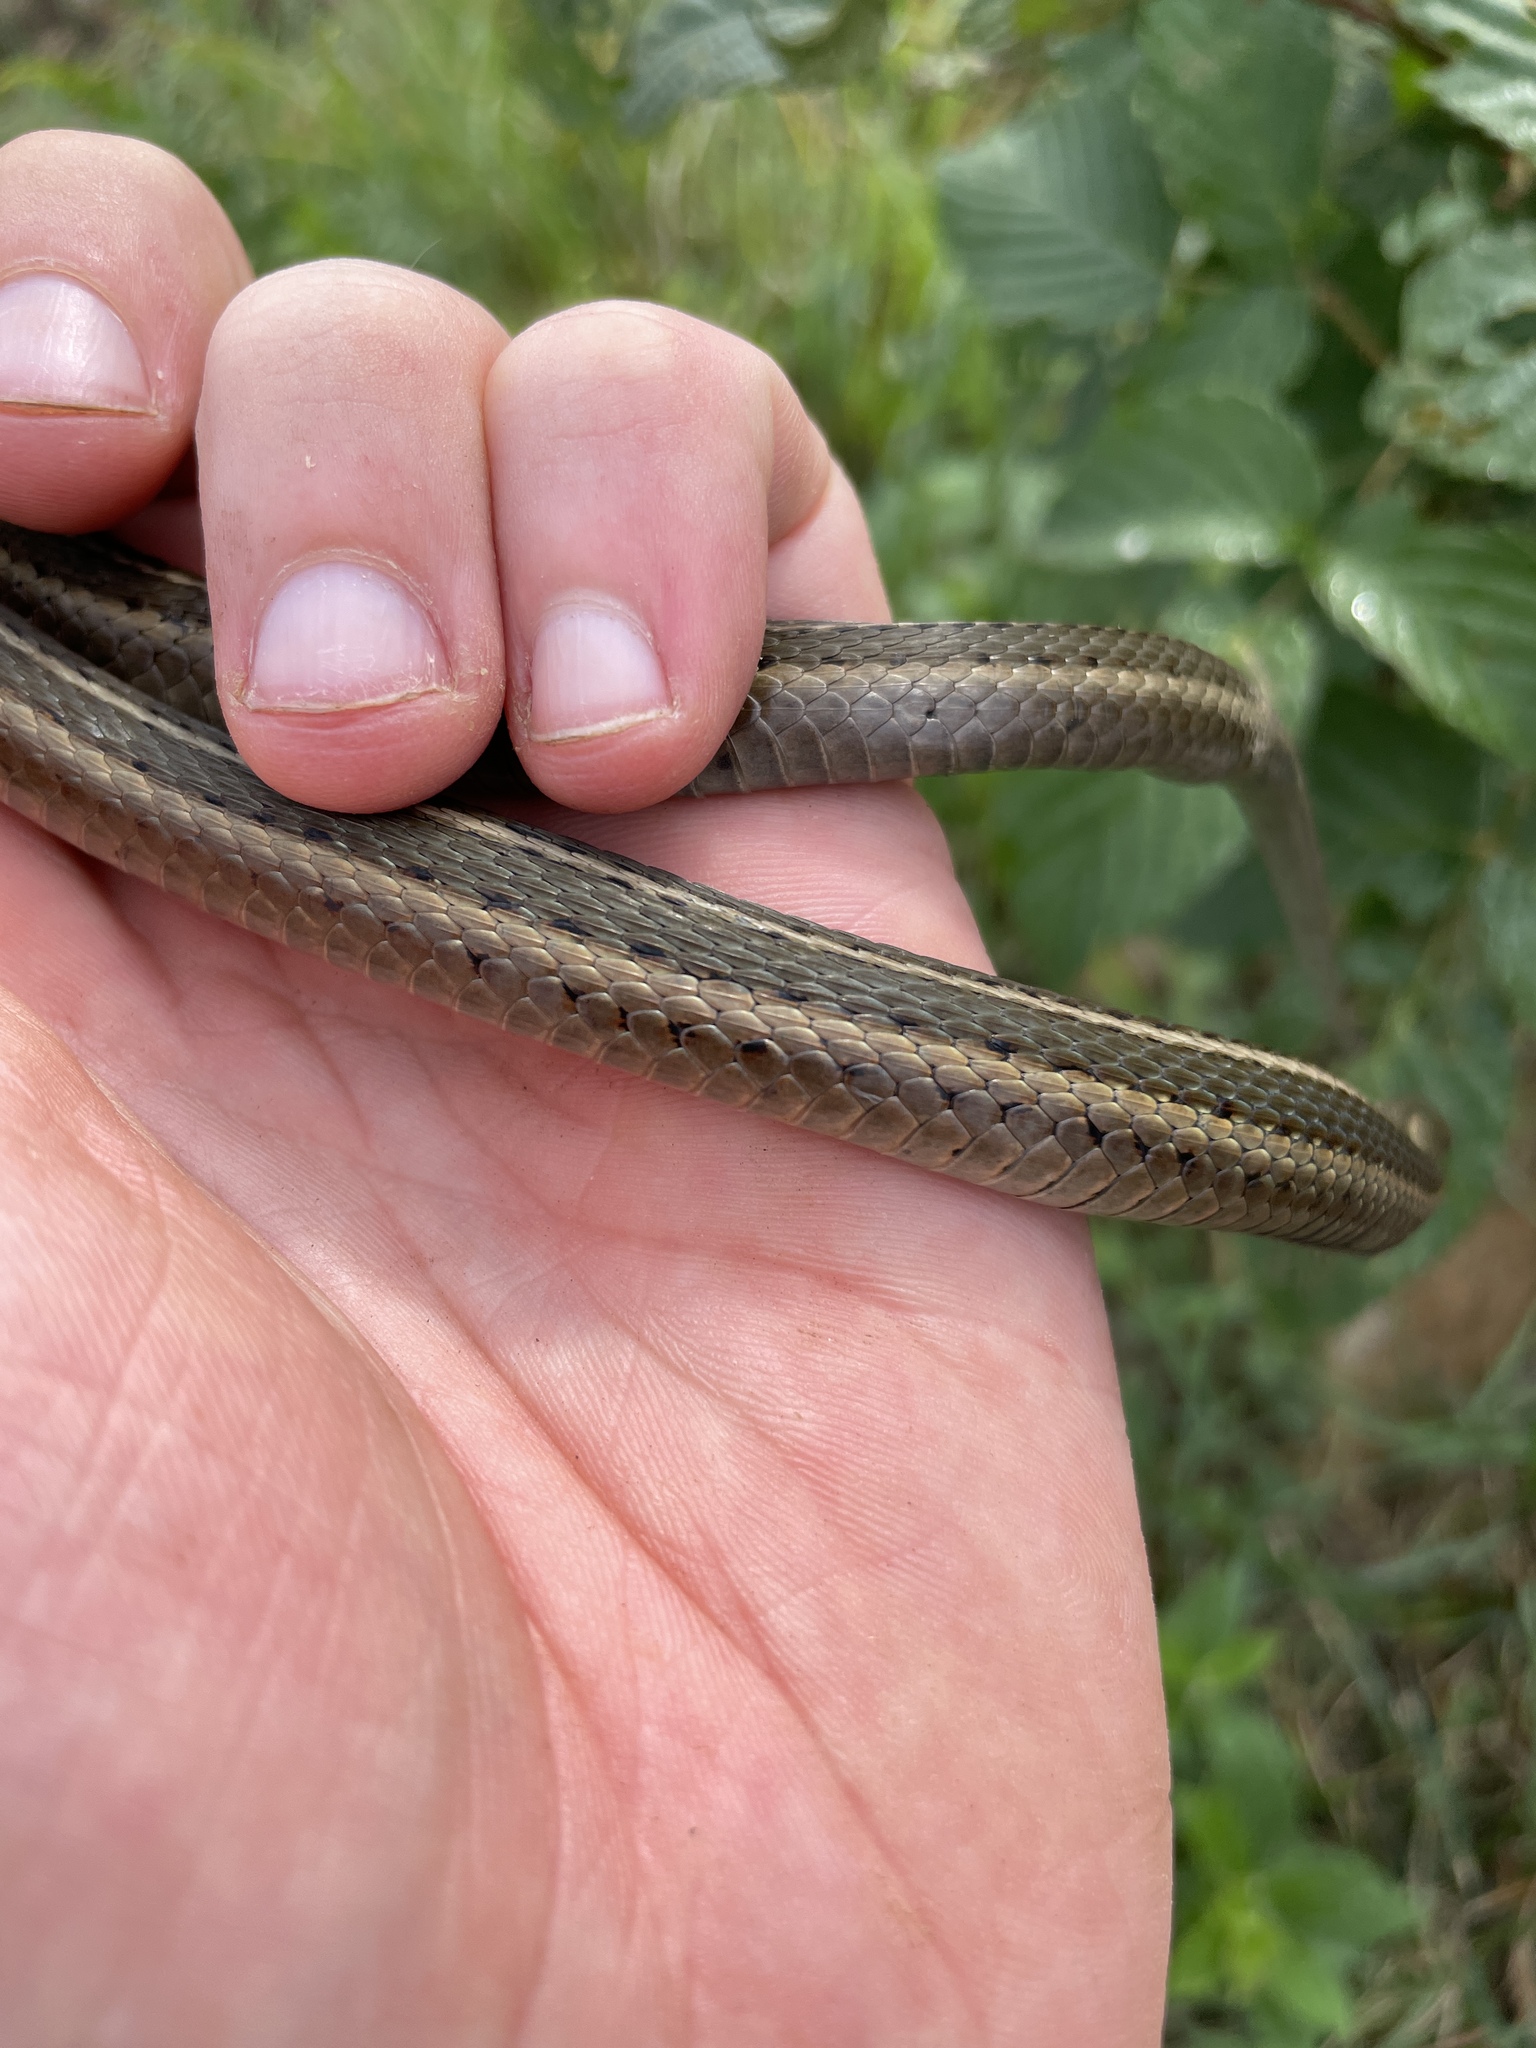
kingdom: Animalia
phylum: Chordata
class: Squamata
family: Colubridae
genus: Thamnophis
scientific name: Thamnophis brachystoma
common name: Shorthead garter snake
